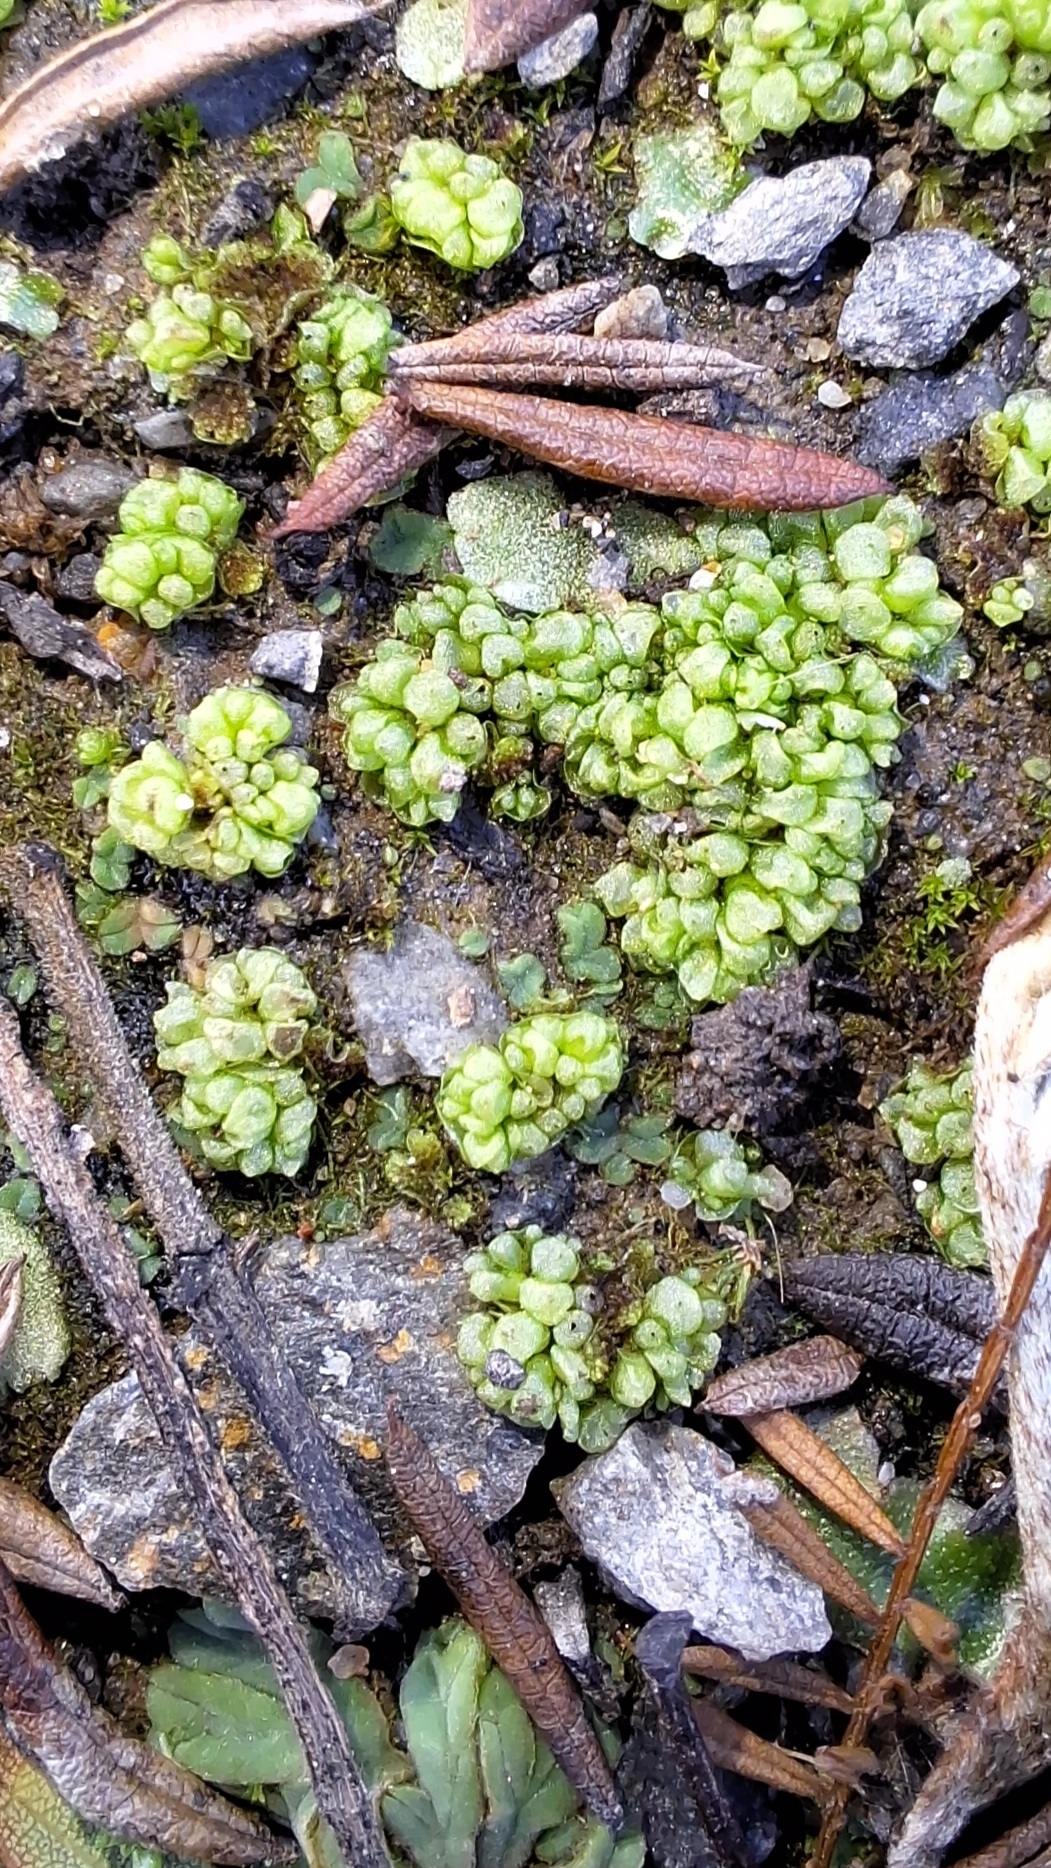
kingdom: Plantae
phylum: Marchantiophyta
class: Marchantiopsida
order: Sphaerocarpales
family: Sphaerocarpaceae
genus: Sphaerocarpos
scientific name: Sphaerocarpos texanus
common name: Texas balloonwort
